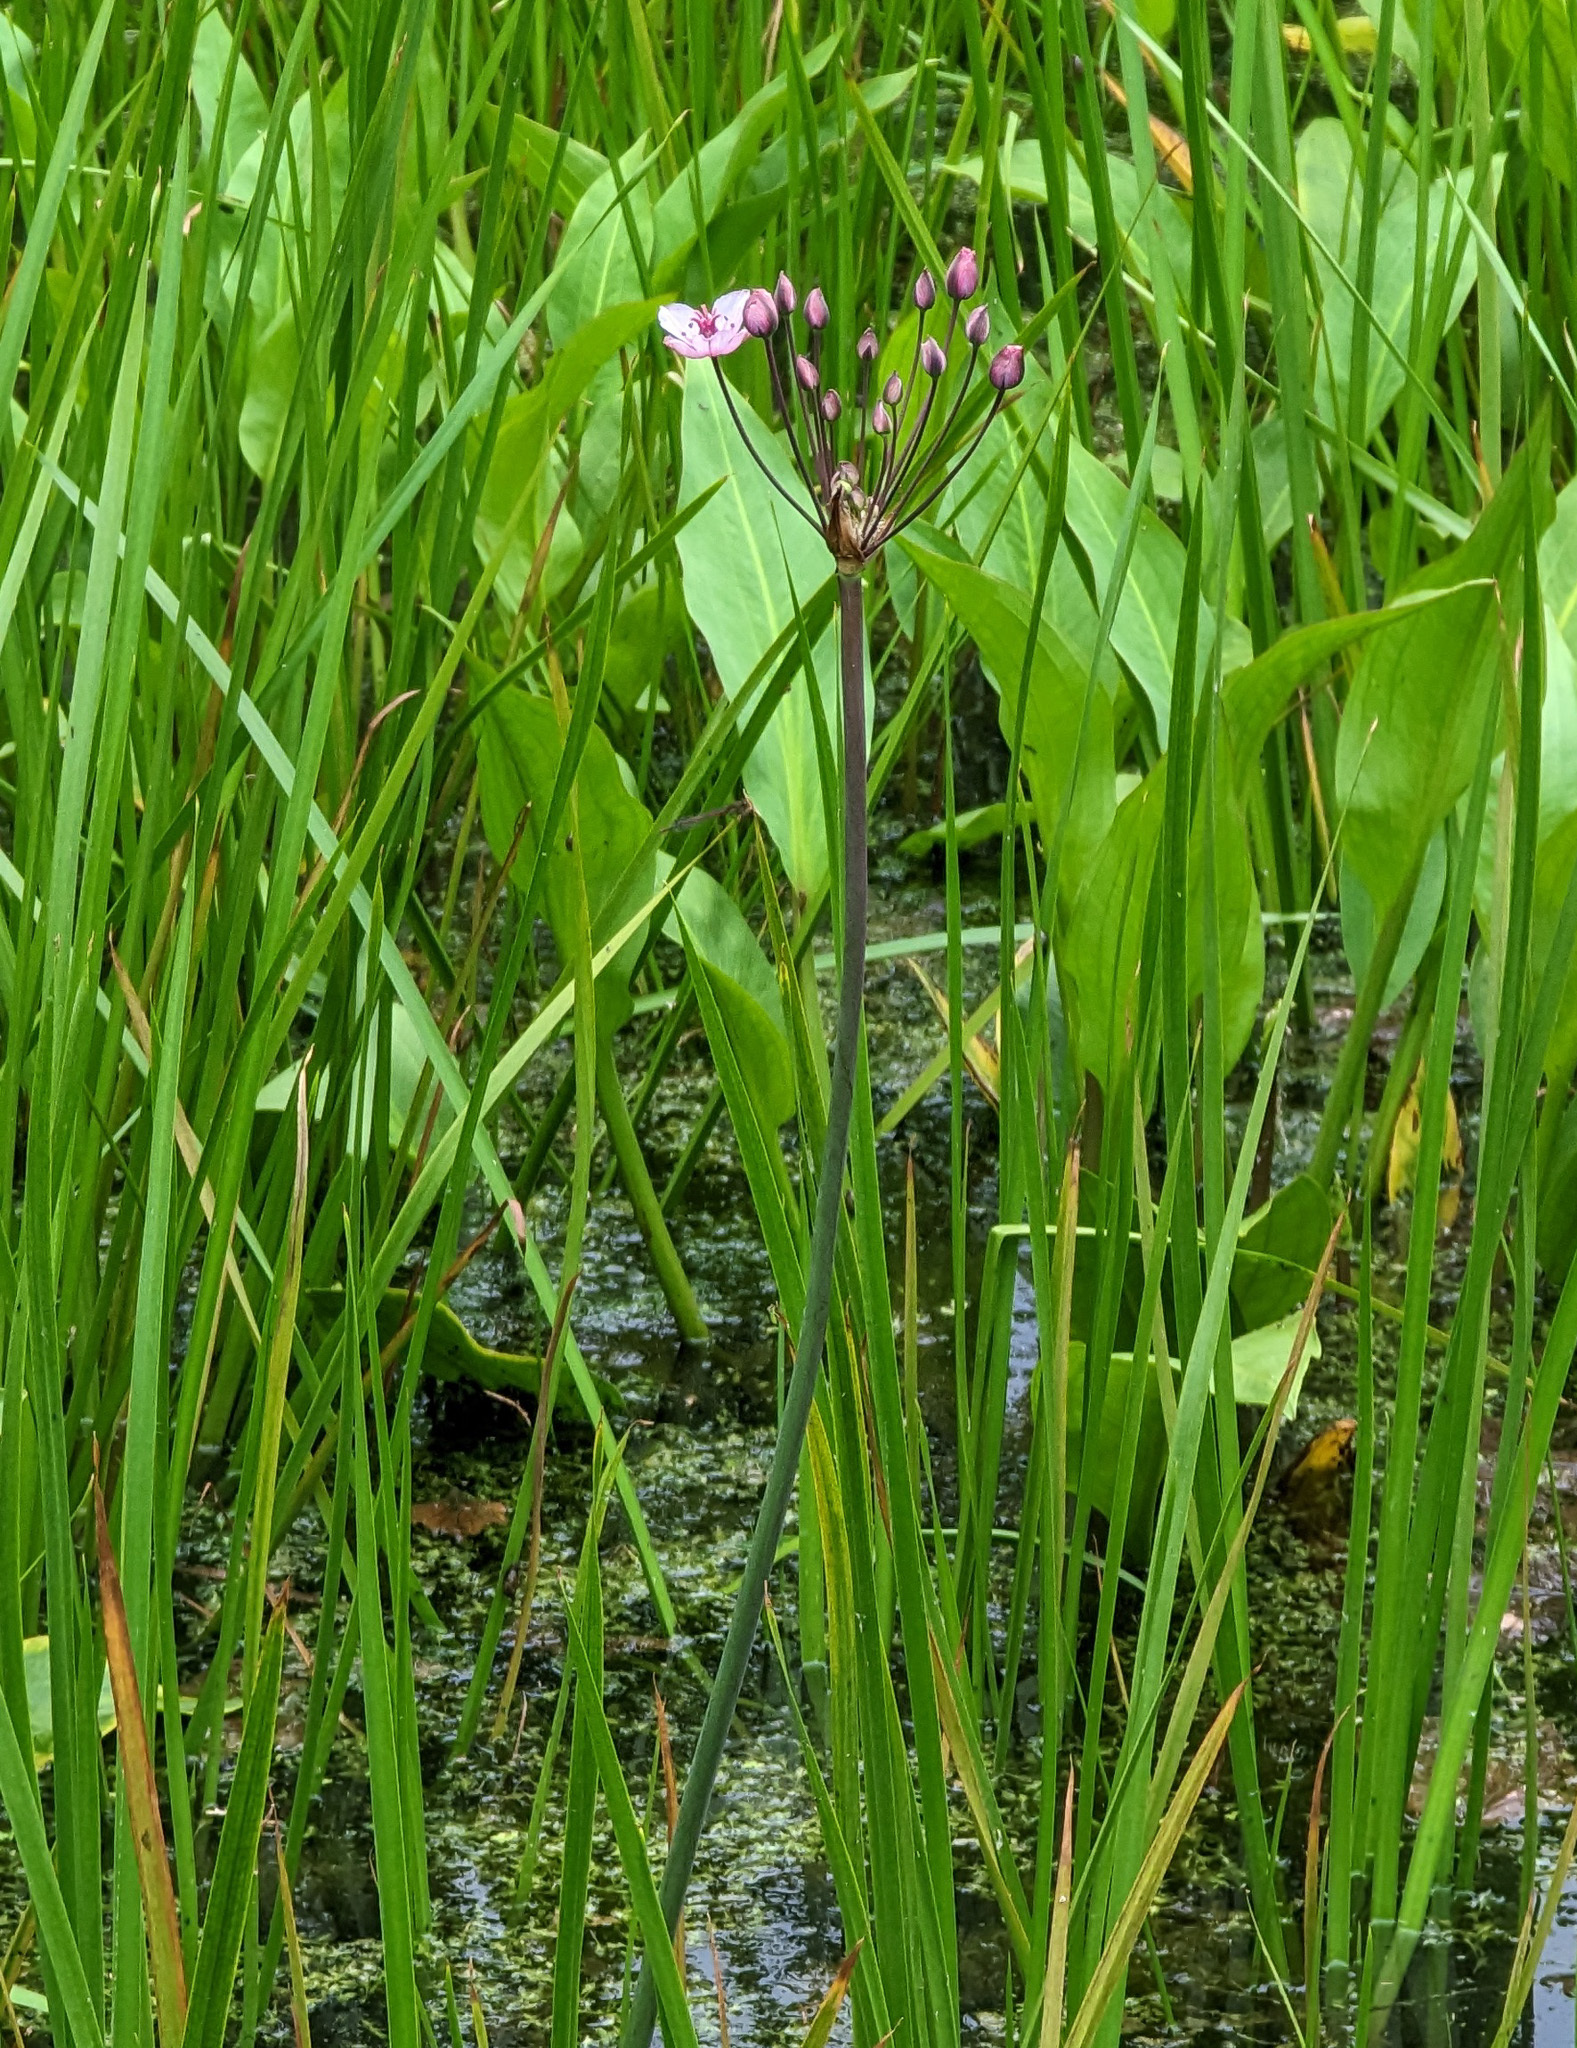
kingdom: Plantae
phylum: Tracheophyta
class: Liliopsida
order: Alismatales
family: Butomaceae
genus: Butomus
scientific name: Butomus umbellatus
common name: Flowering-rush
